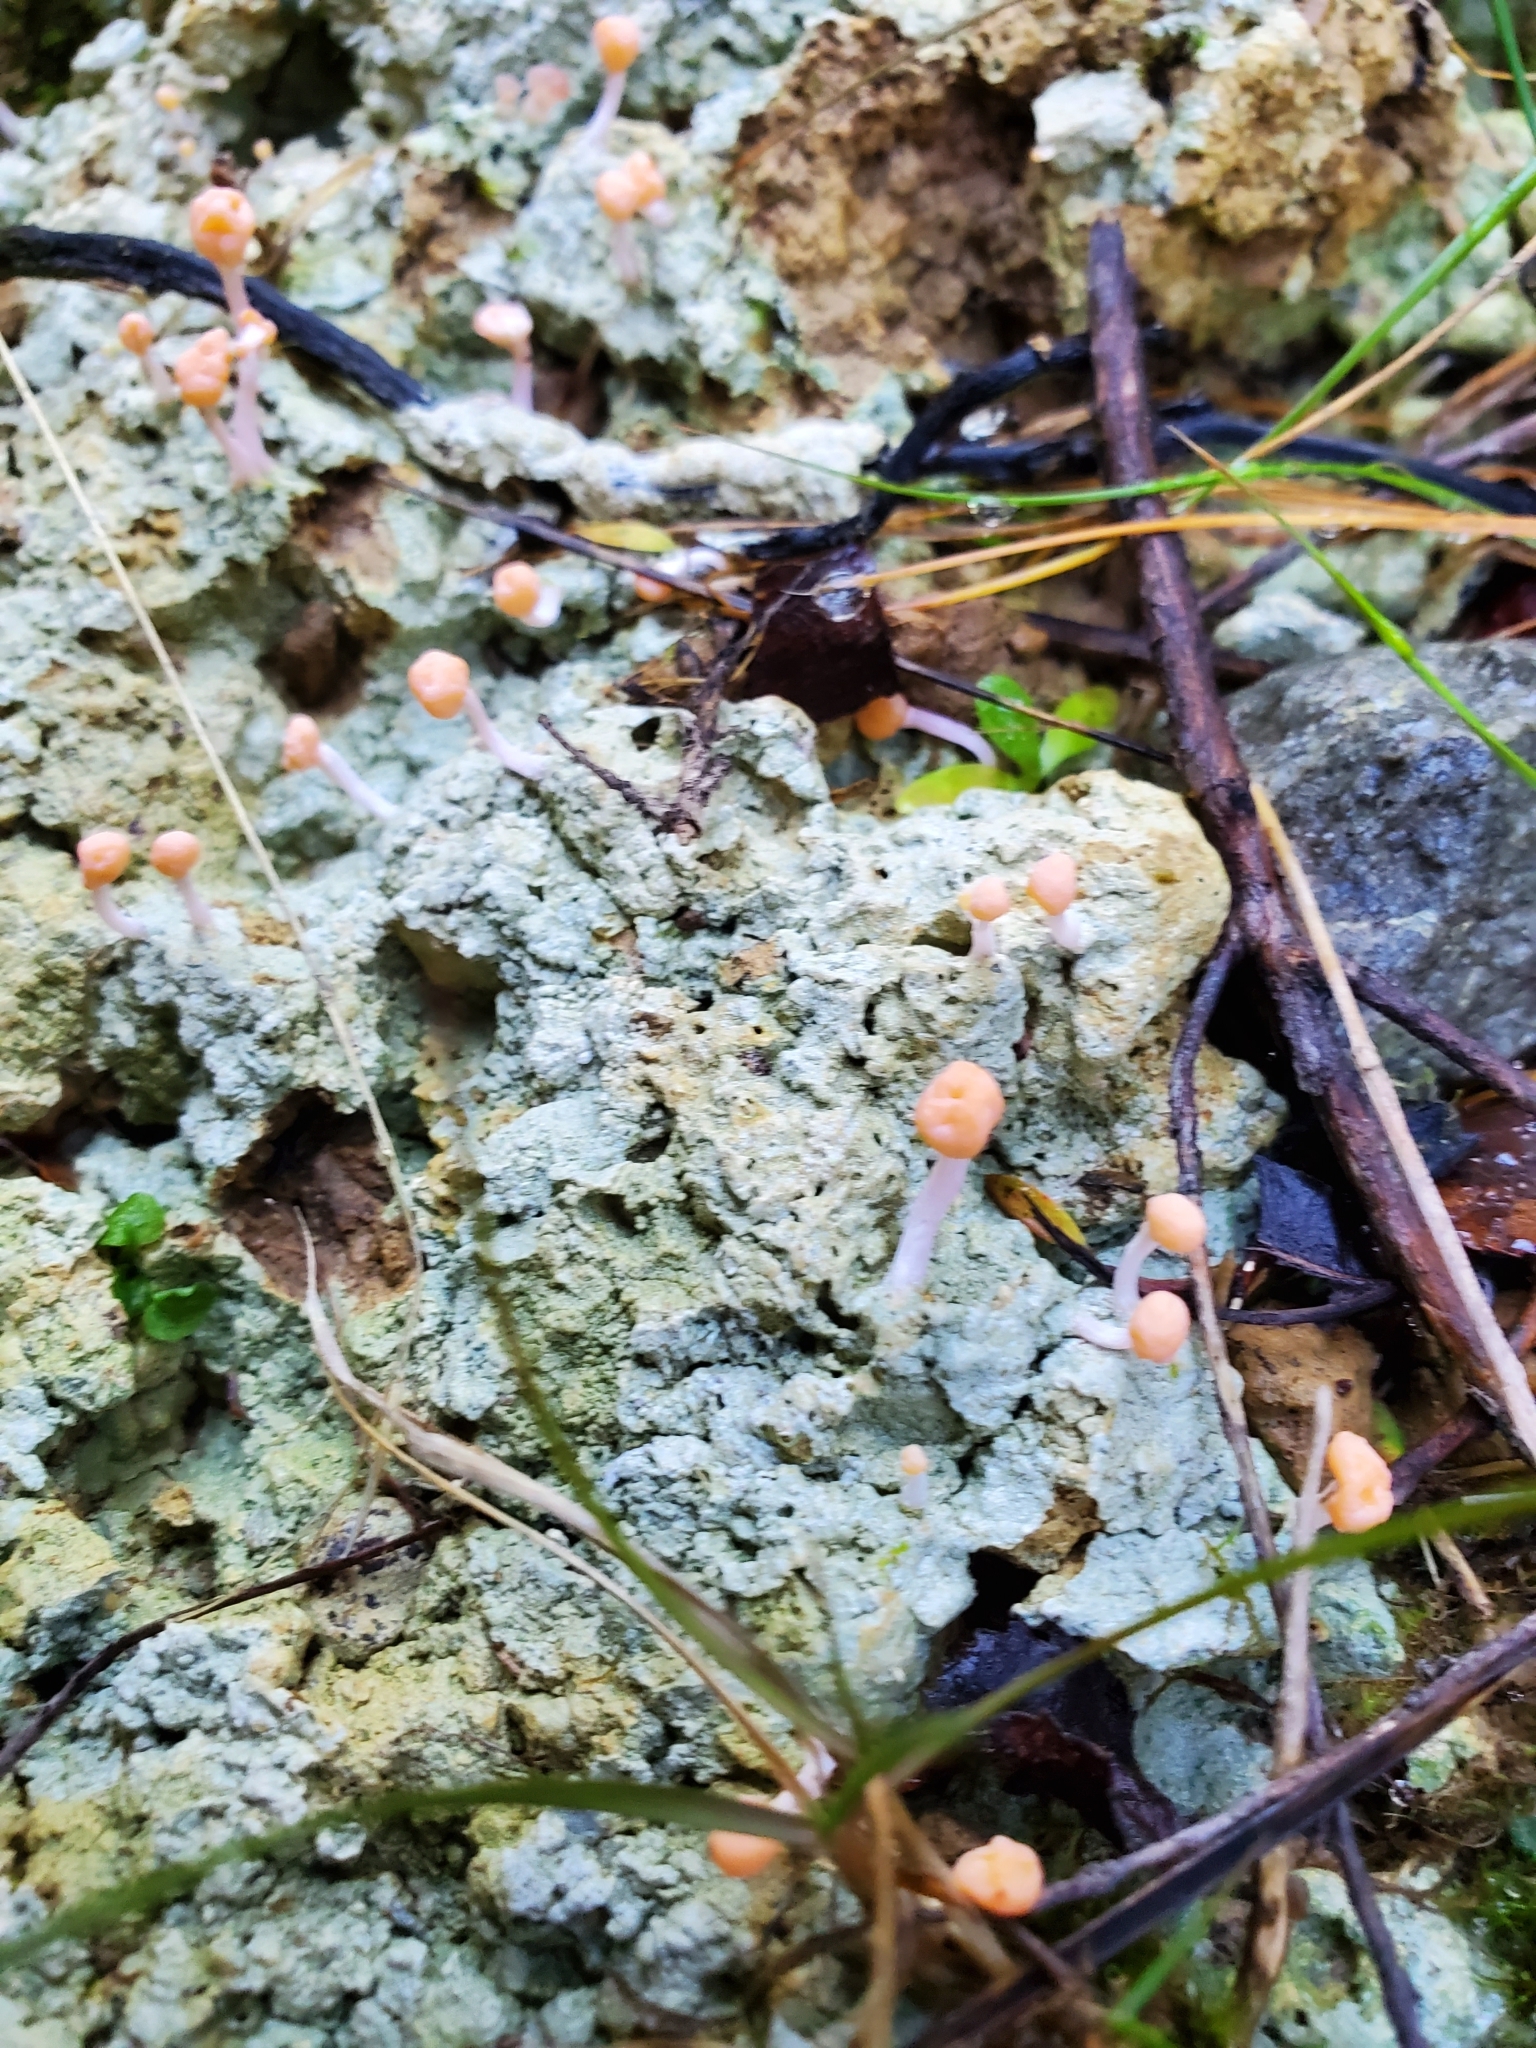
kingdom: Fungi
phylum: Ascomycota
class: Lecanoromycetes
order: Pertusariales
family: Icmadophilaceae
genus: Dibaeis
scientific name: Dibaeis arcuata
